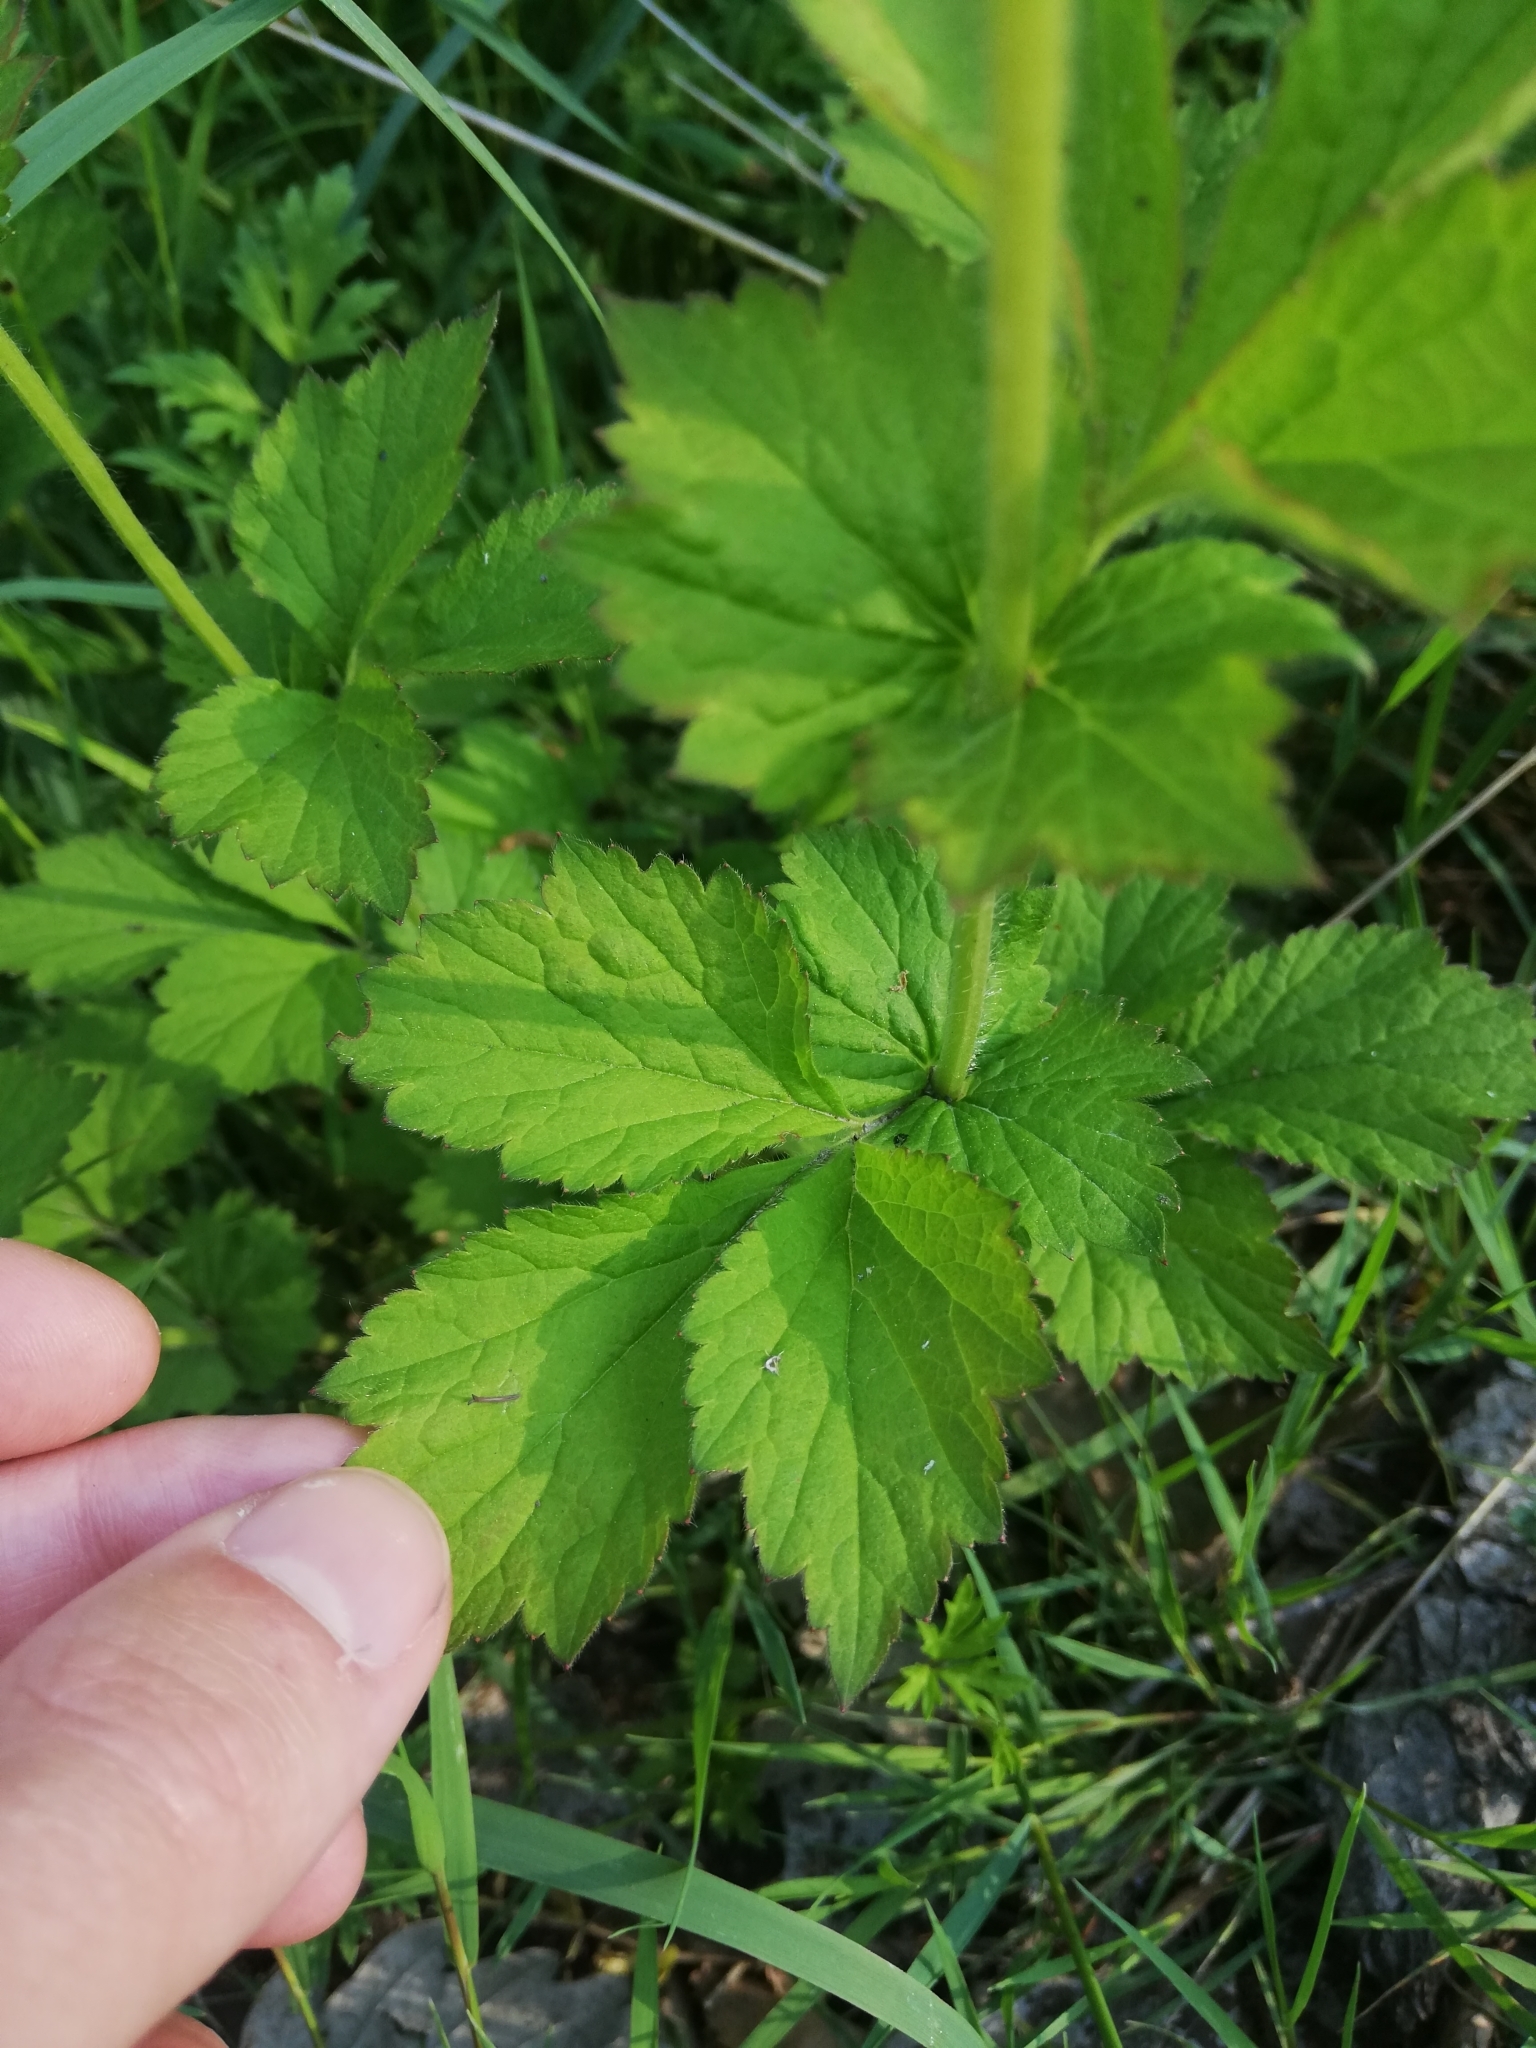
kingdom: Plantae
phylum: Tracheophyta
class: Magnoliopsida
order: Rosales
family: Rosaceae
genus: Geum
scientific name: Geum urbanum
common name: Wood avens
